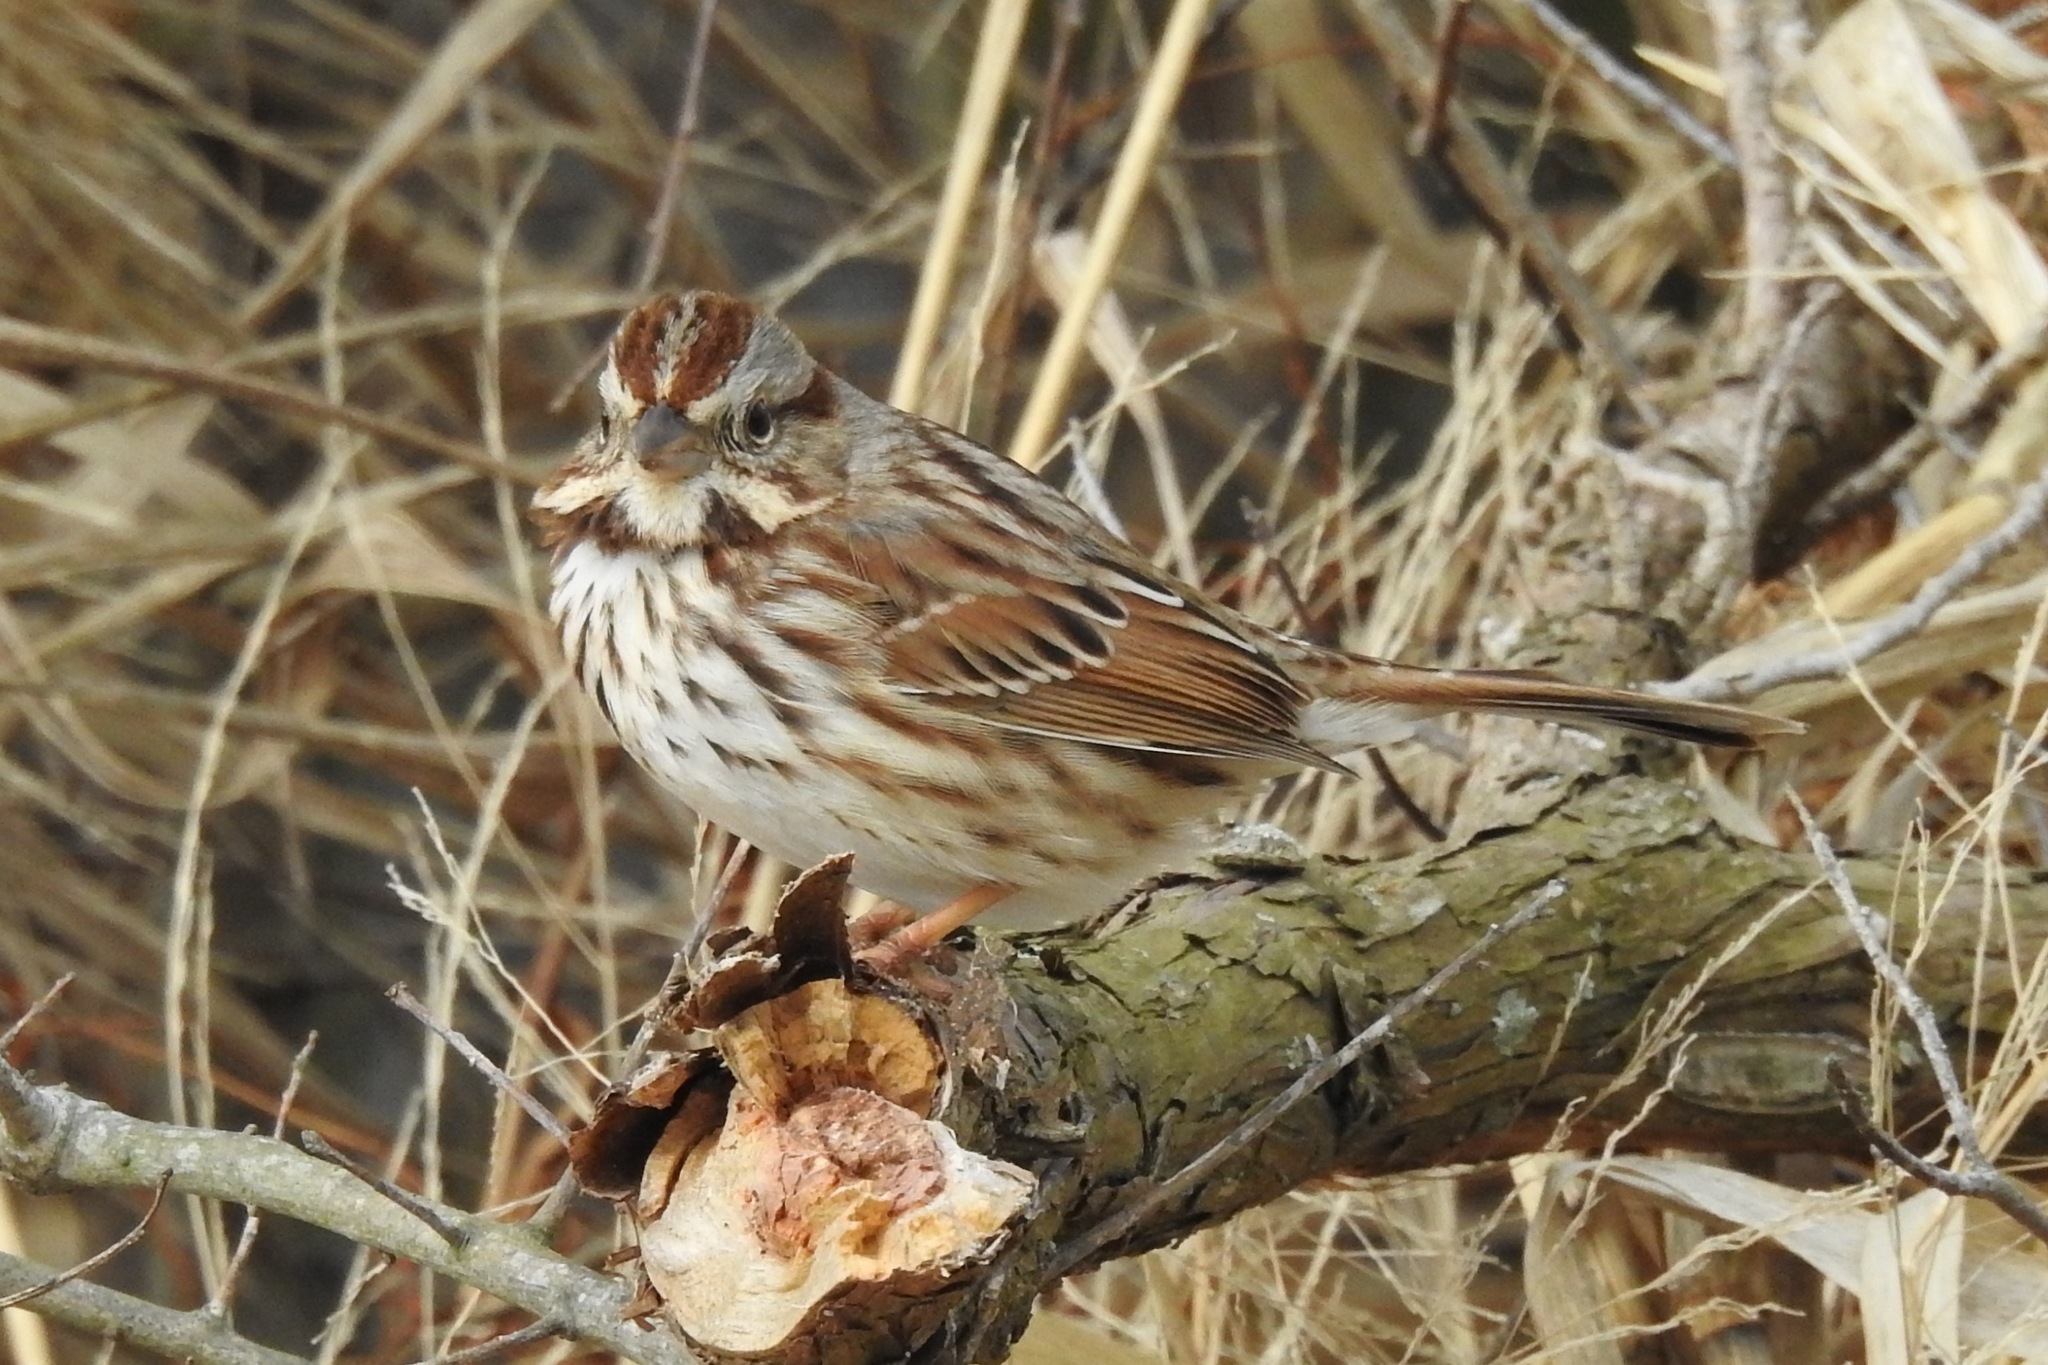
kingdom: Animalia
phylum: Chordata
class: Aves
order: Passeriformes
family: Passerellidae
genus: Melospiza
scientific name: Melospiza melodia
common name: Song sparrow
